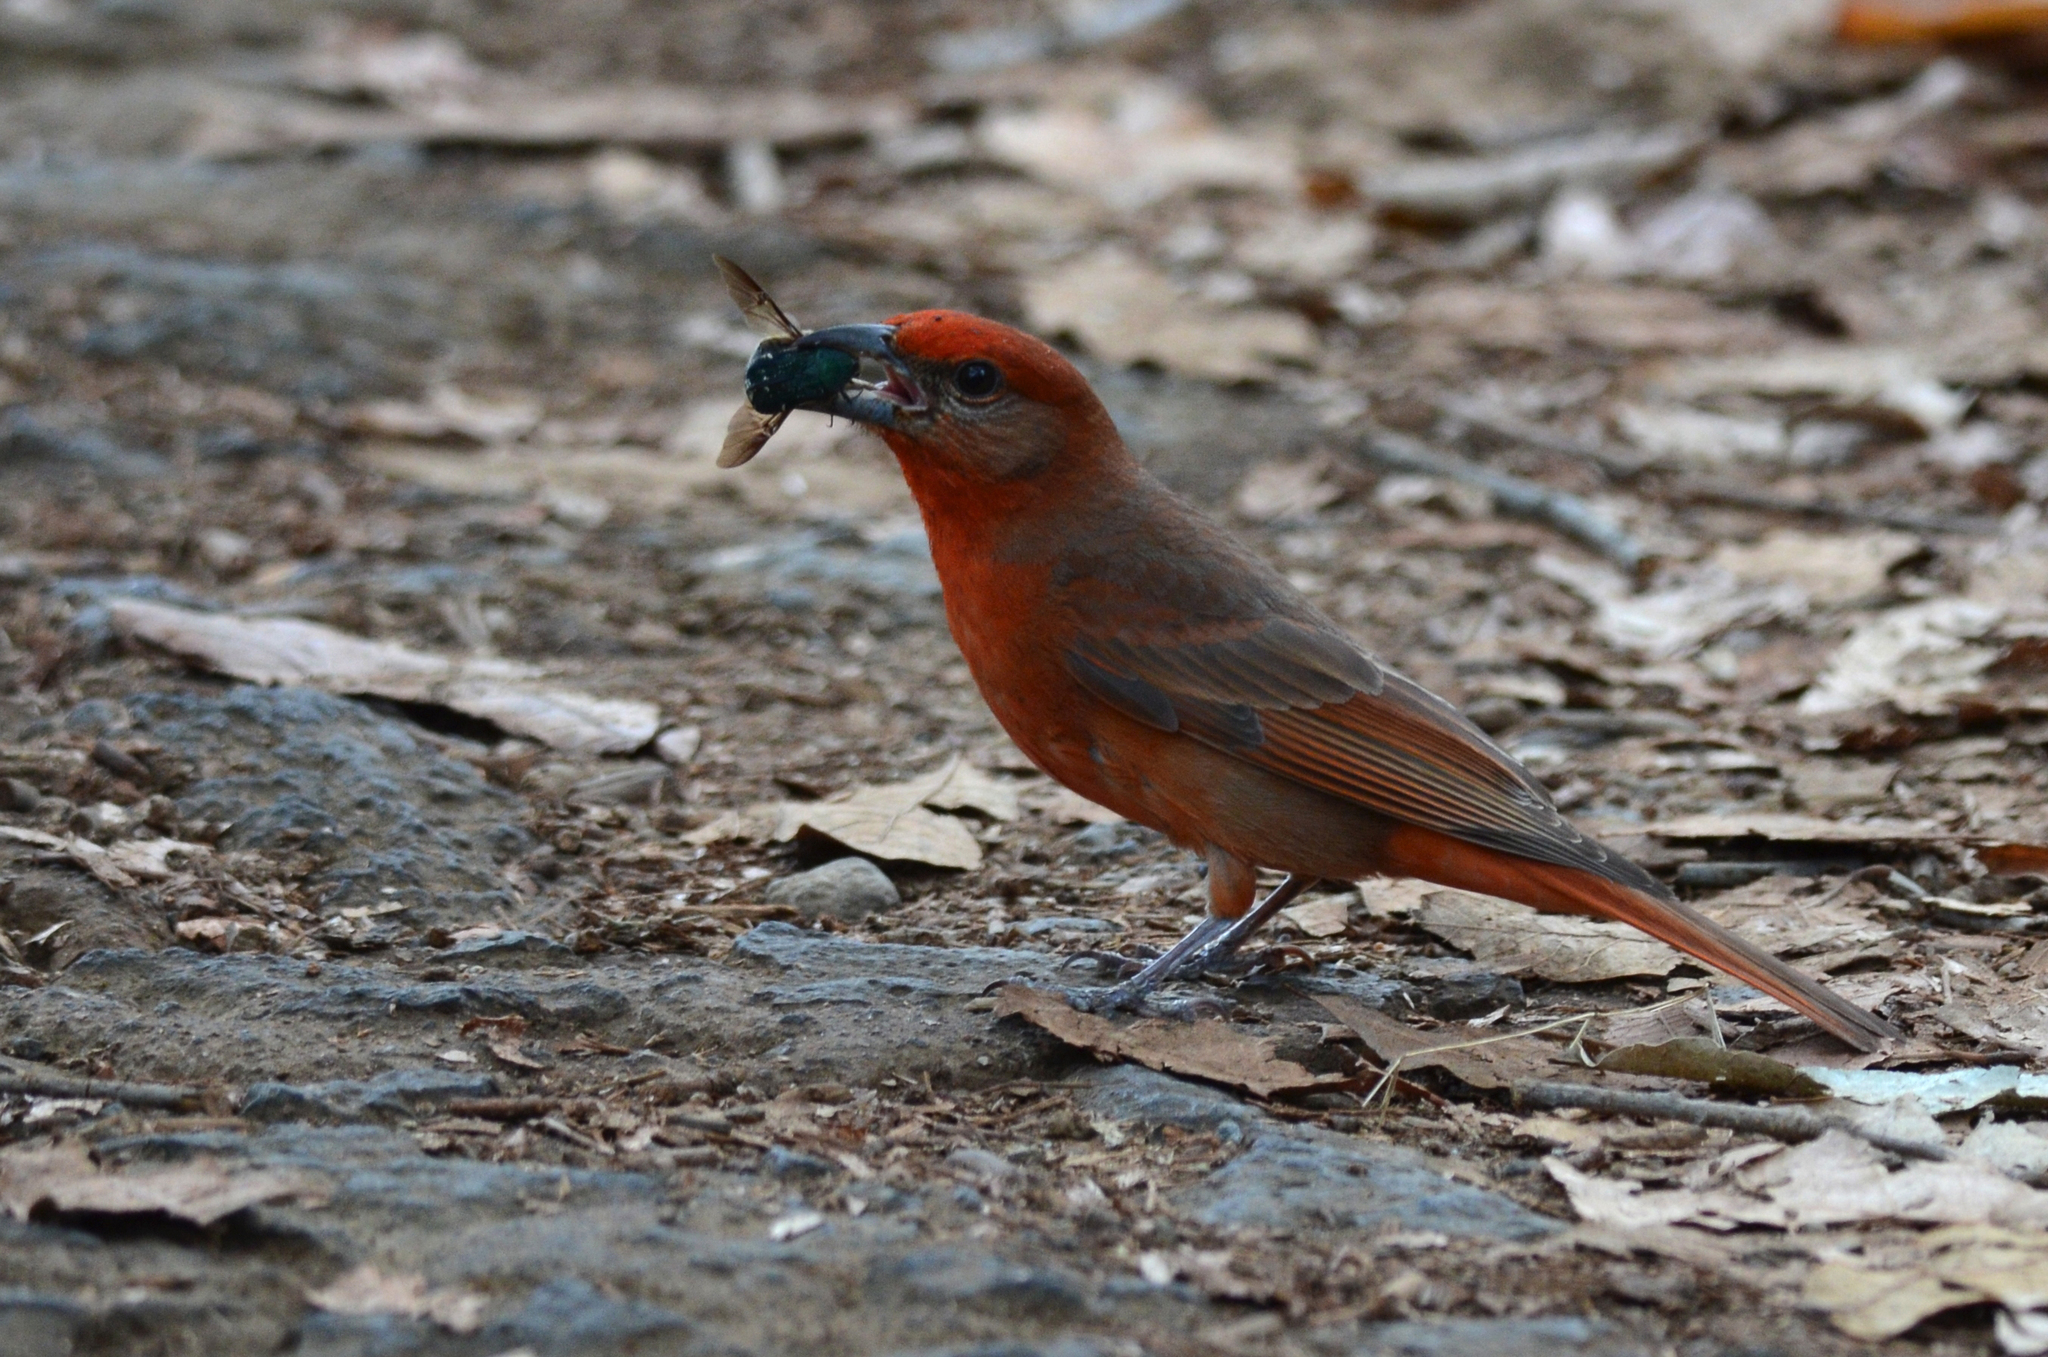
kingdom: Animalia
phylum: Chordata
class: Aves
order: Passeriformes
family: Cardinalidae
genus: Piranga
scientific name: Piranga flava
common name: Red tanager
